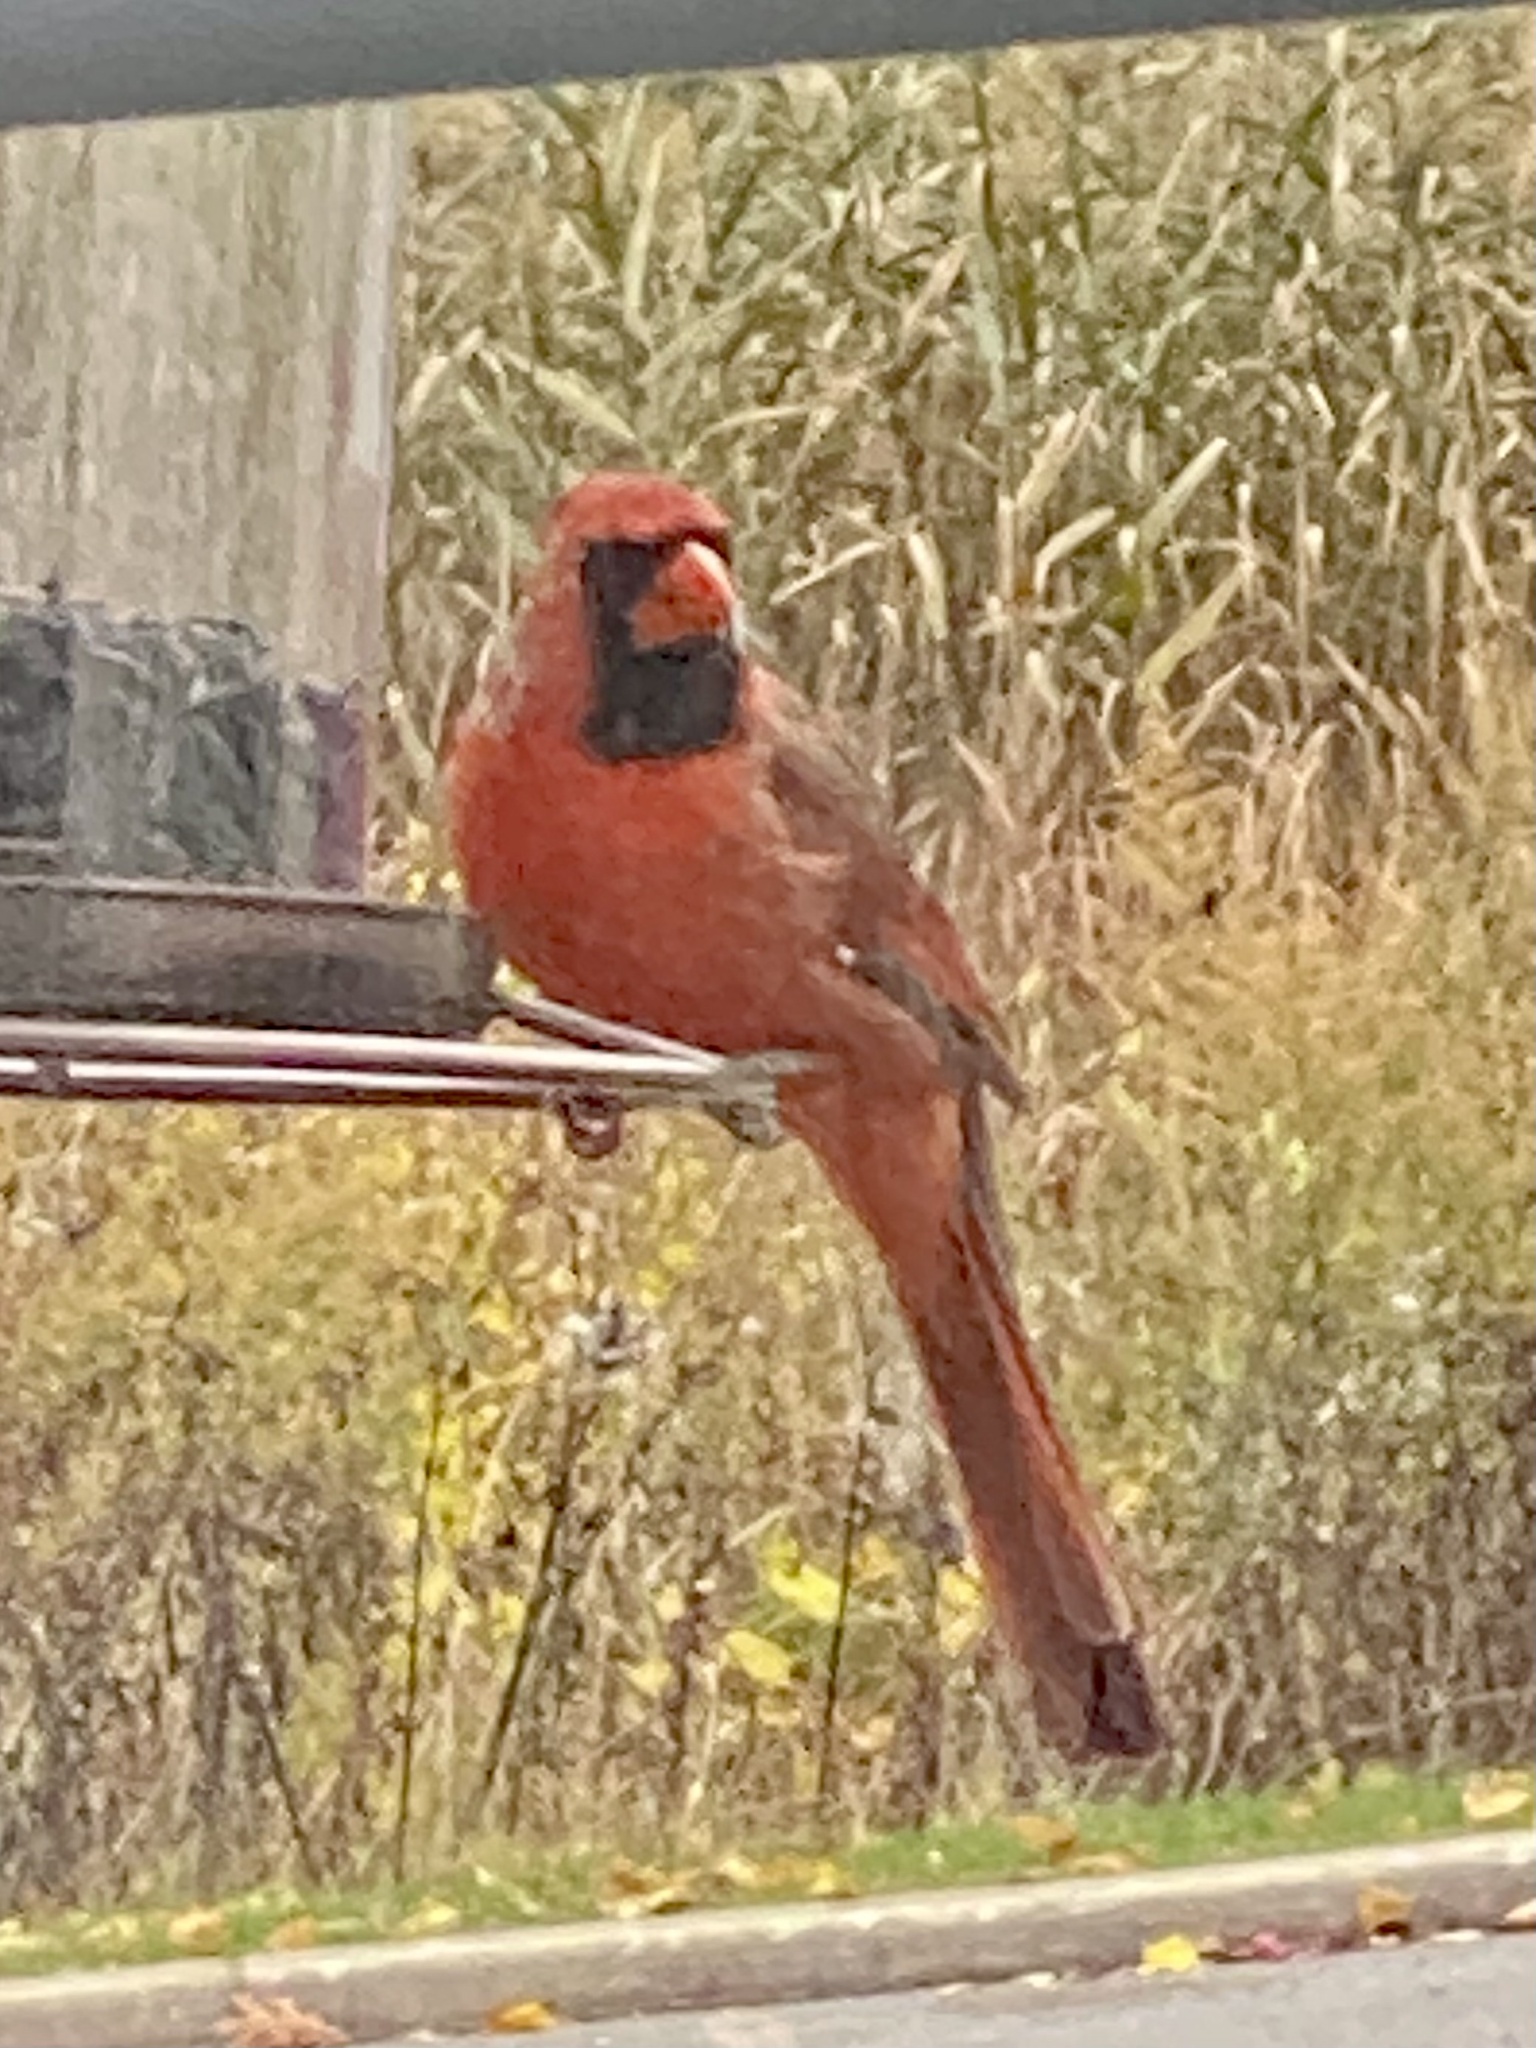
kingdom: Animalia
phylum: Chordata
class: Aves
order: Passeriformes
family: Cardinalidae
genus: Cardinalis
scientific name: Cardinalis cardinalis
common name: Northern cardinal
